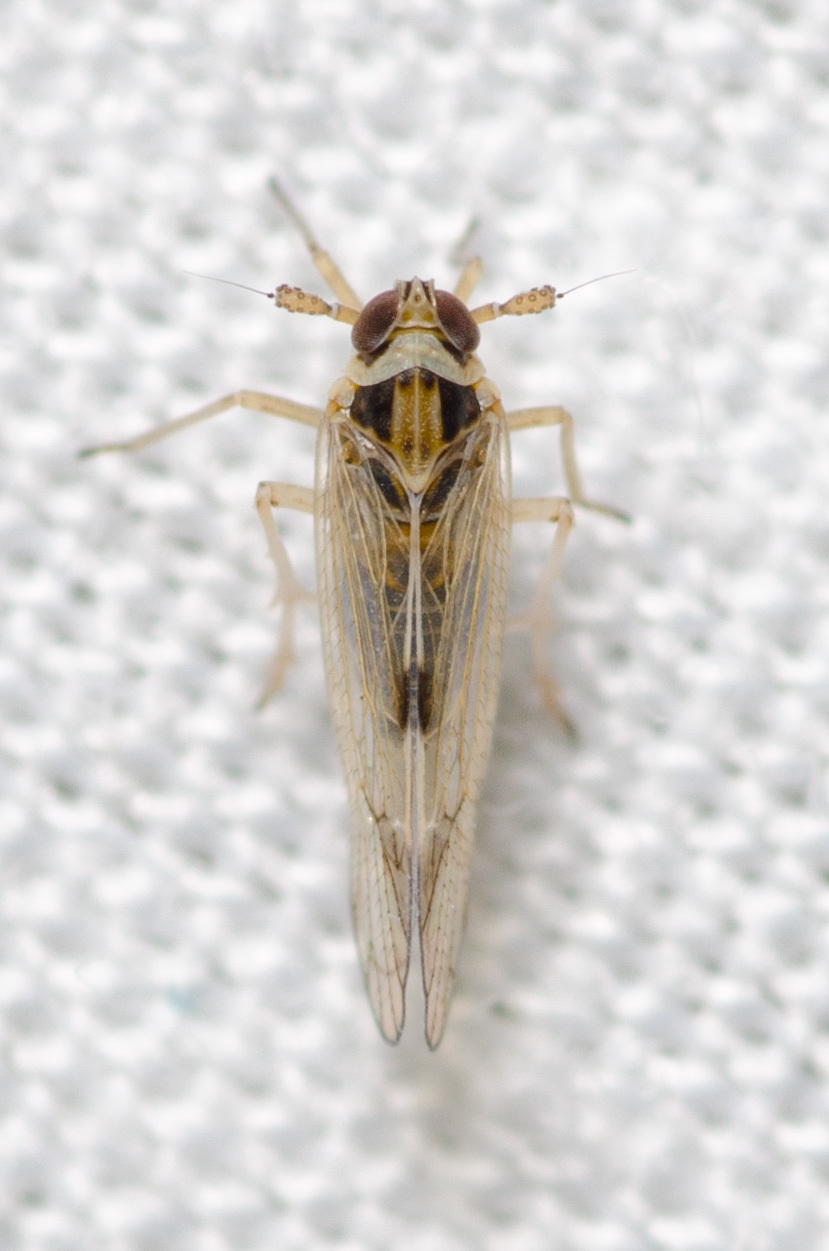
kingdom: Animalia
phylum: Arthropoda
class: Insecta
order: Hemiptera
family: Delphacidae
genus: Chionomus
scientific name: Chionomus
